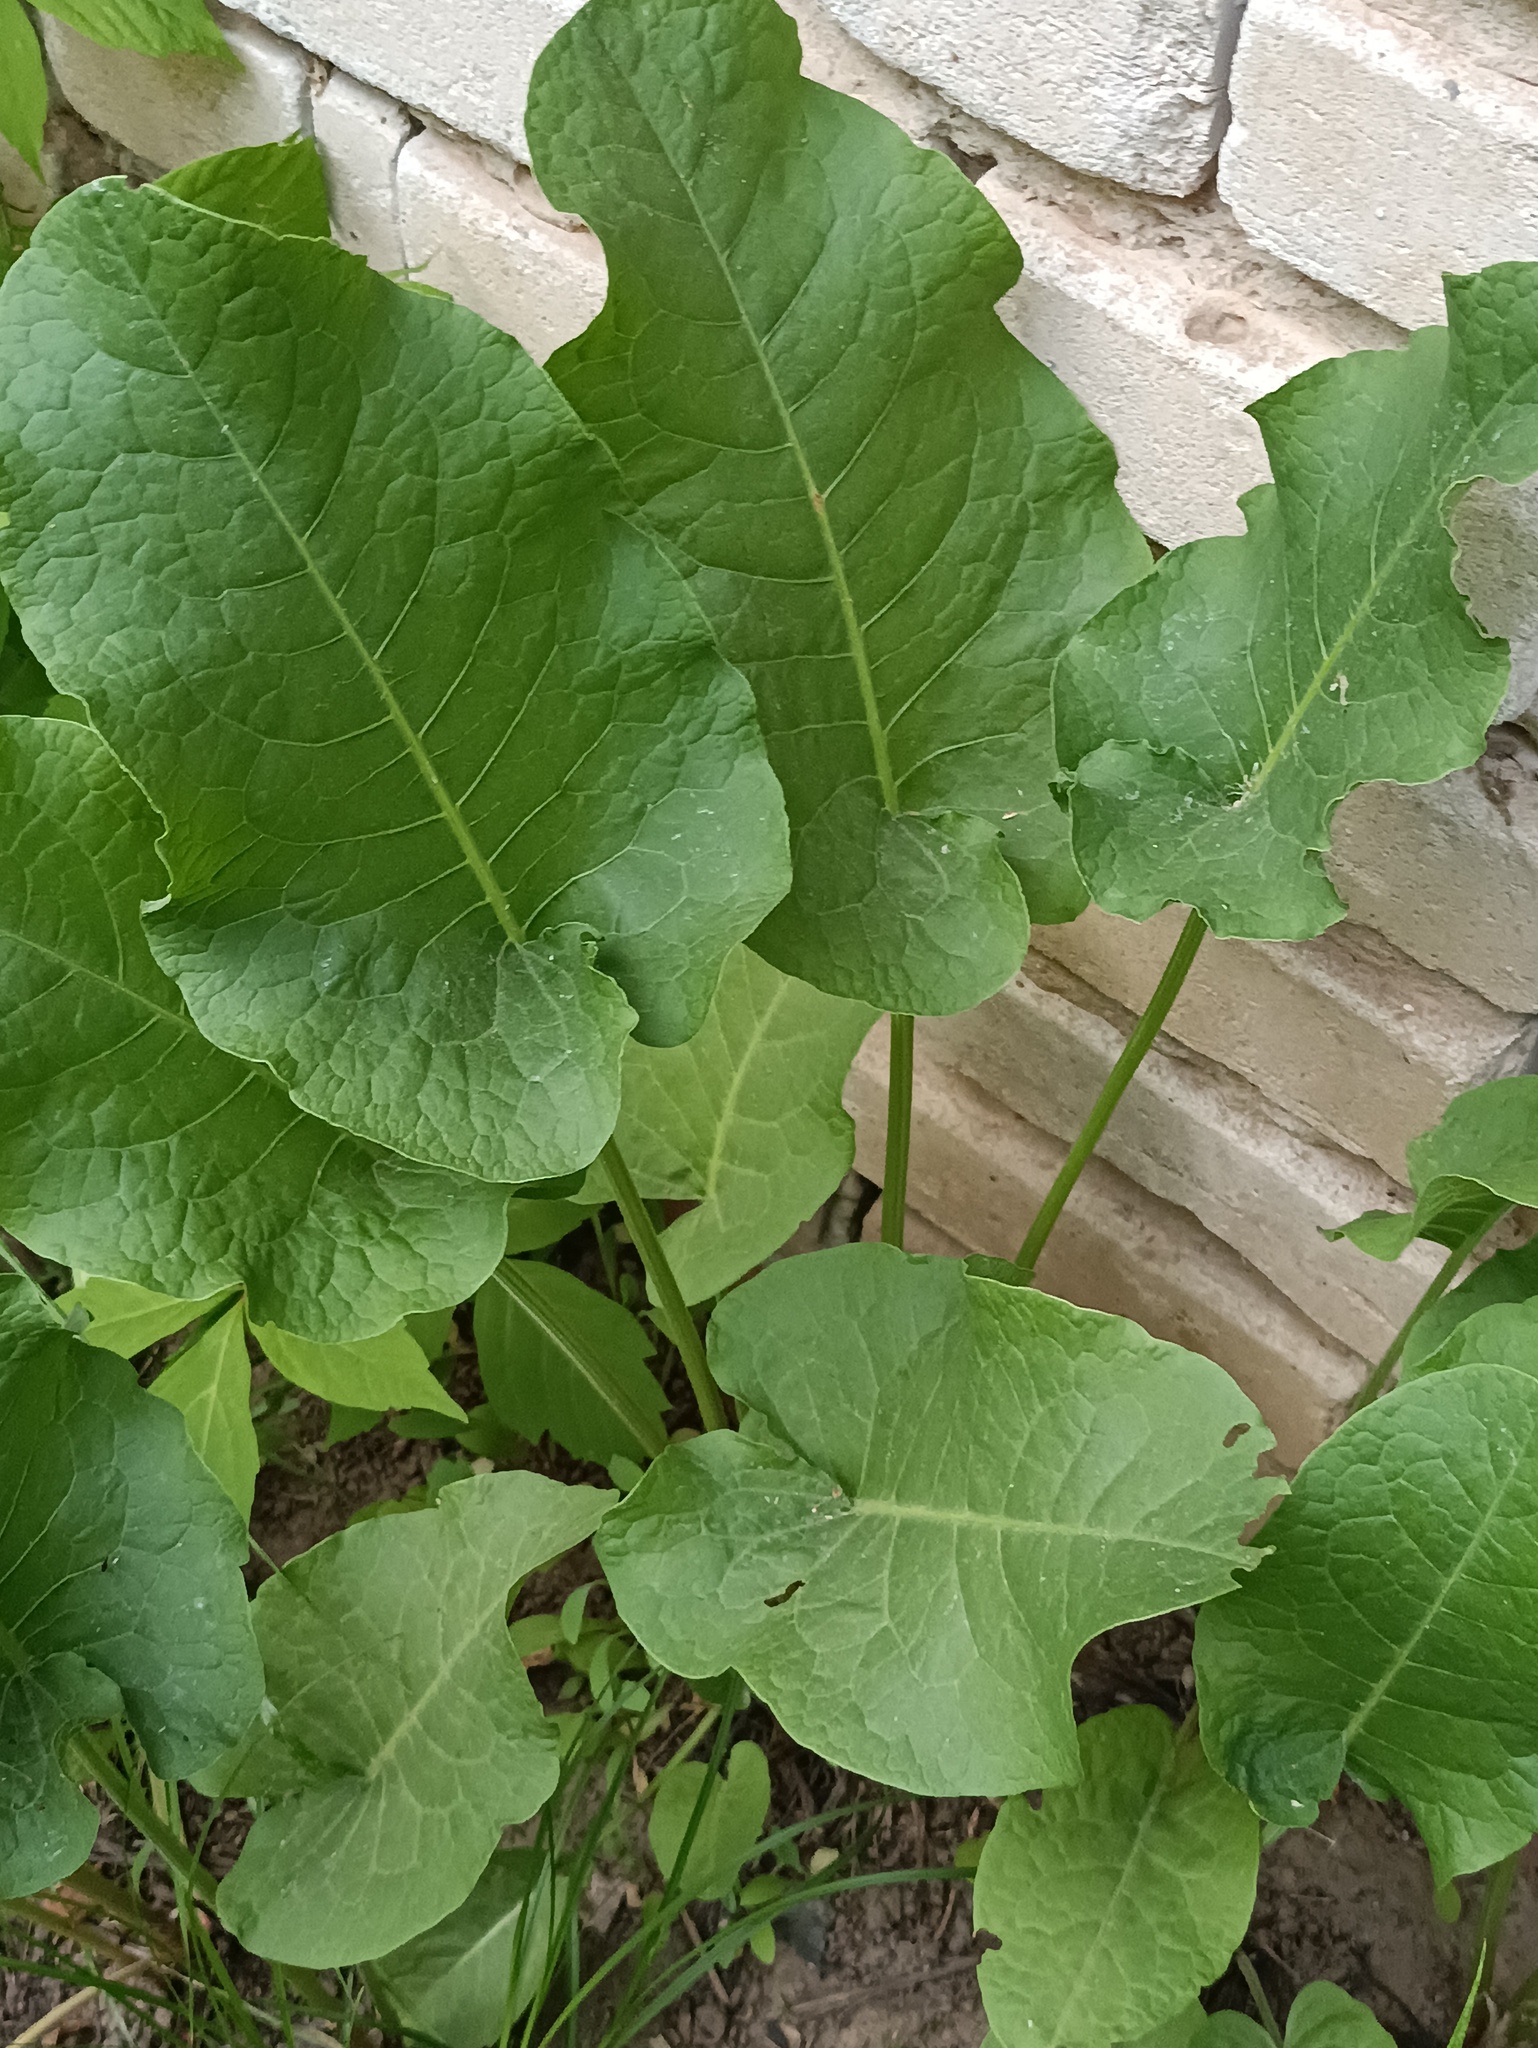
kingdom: Plantae
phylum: Tracheophyta
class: Magnoliopsida
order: Brassicales
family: Brassicaceae
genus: Armoracia
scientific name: Armoracia rusticana
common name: Horseradish
